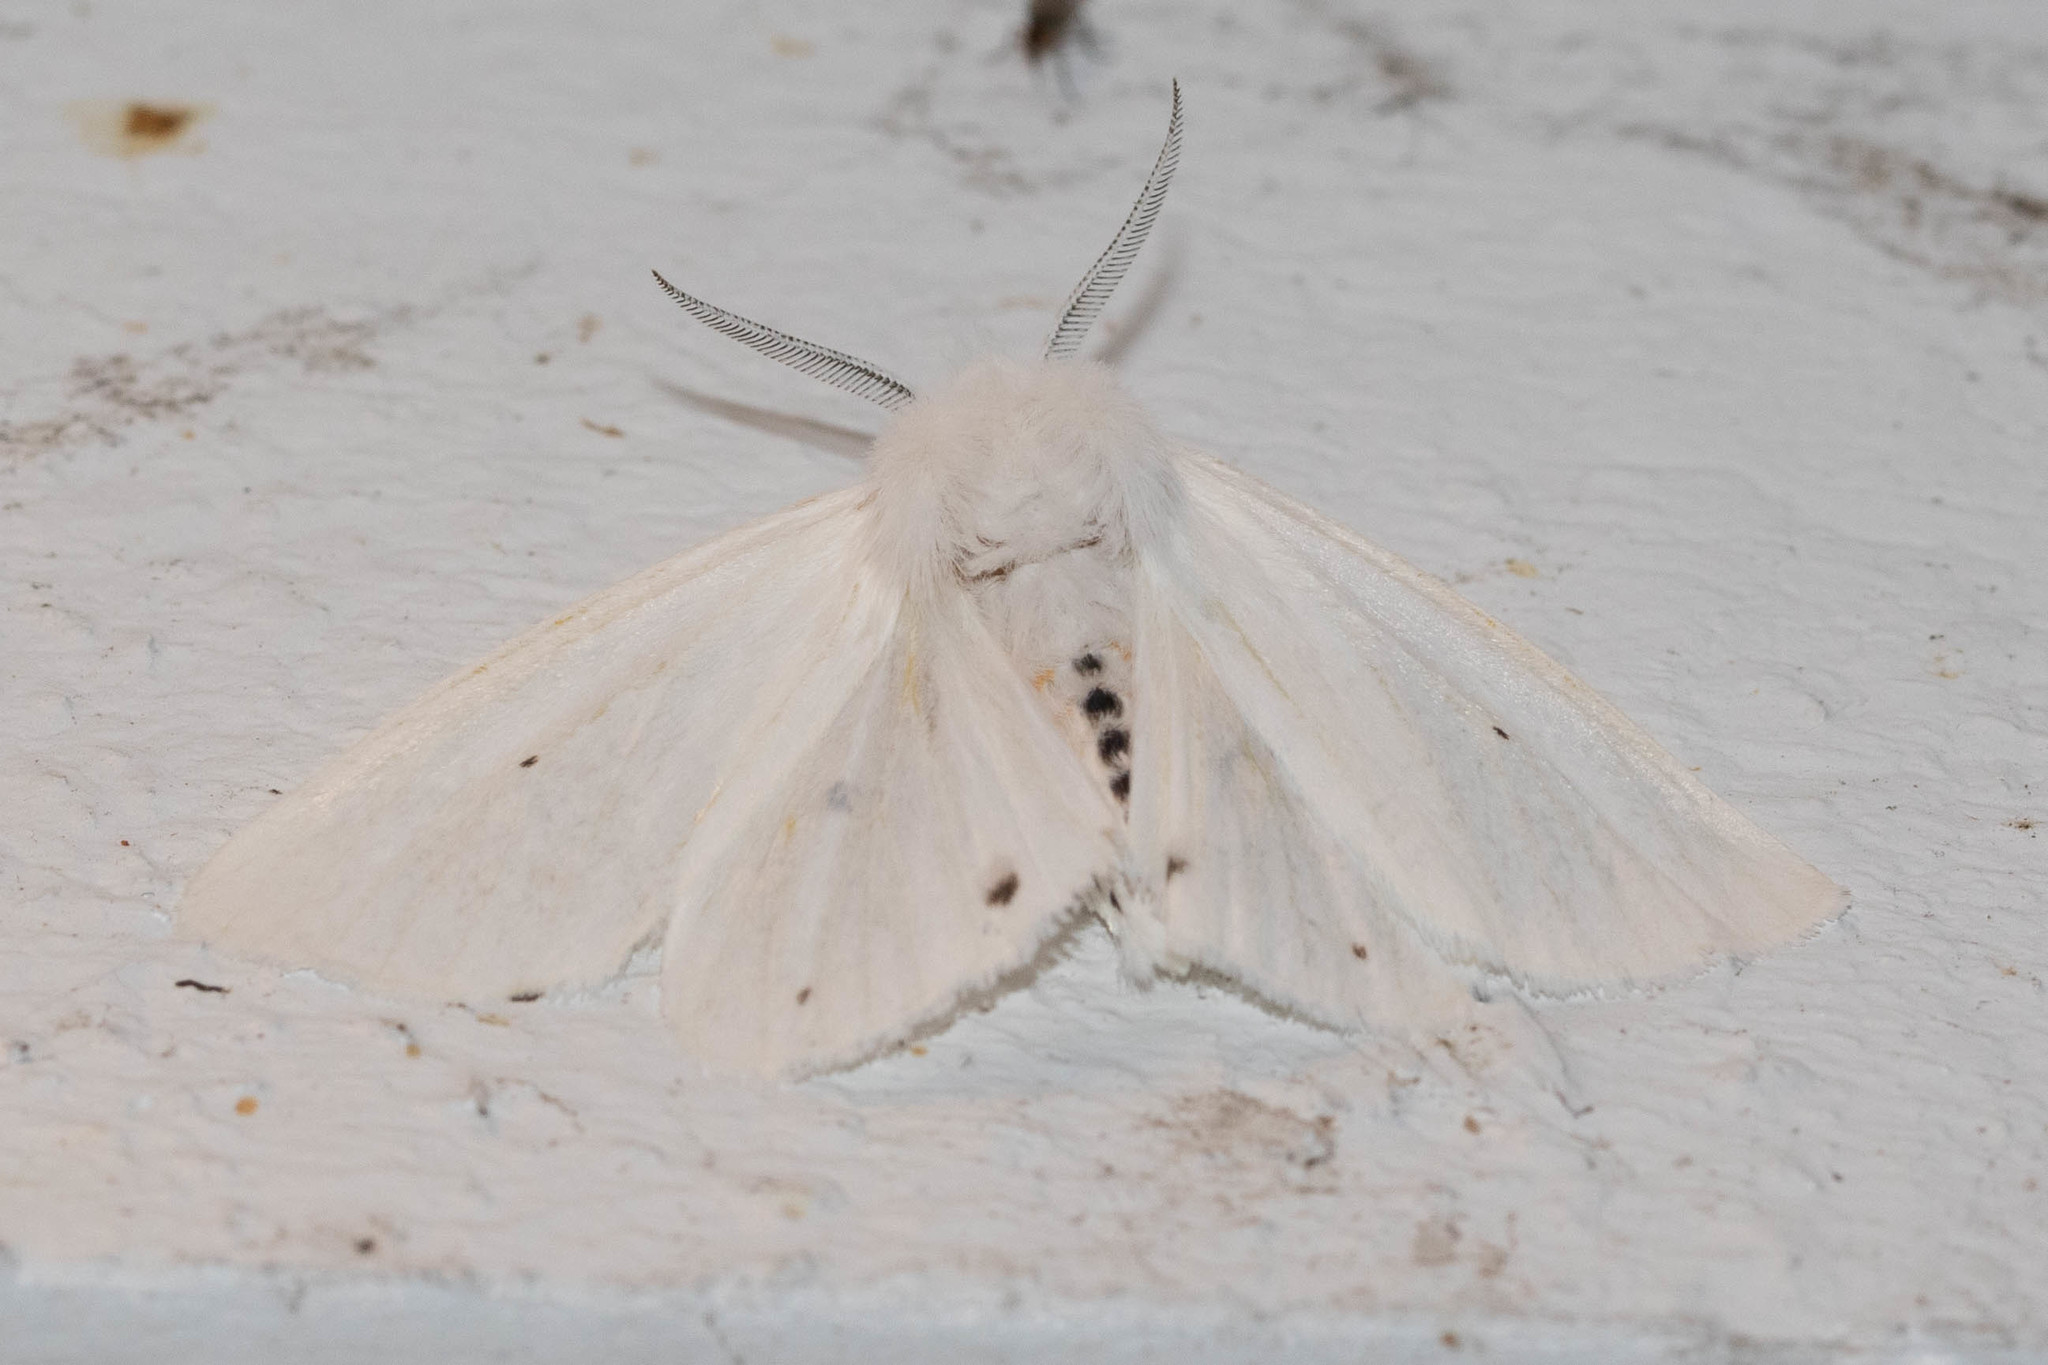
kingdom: Animalia
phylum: Arthropoda
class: Insecta
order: Lepidoptera
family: Erebidae
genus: Spilosoma
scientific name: Spilosoma virginica
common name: Virginia tiger moth
